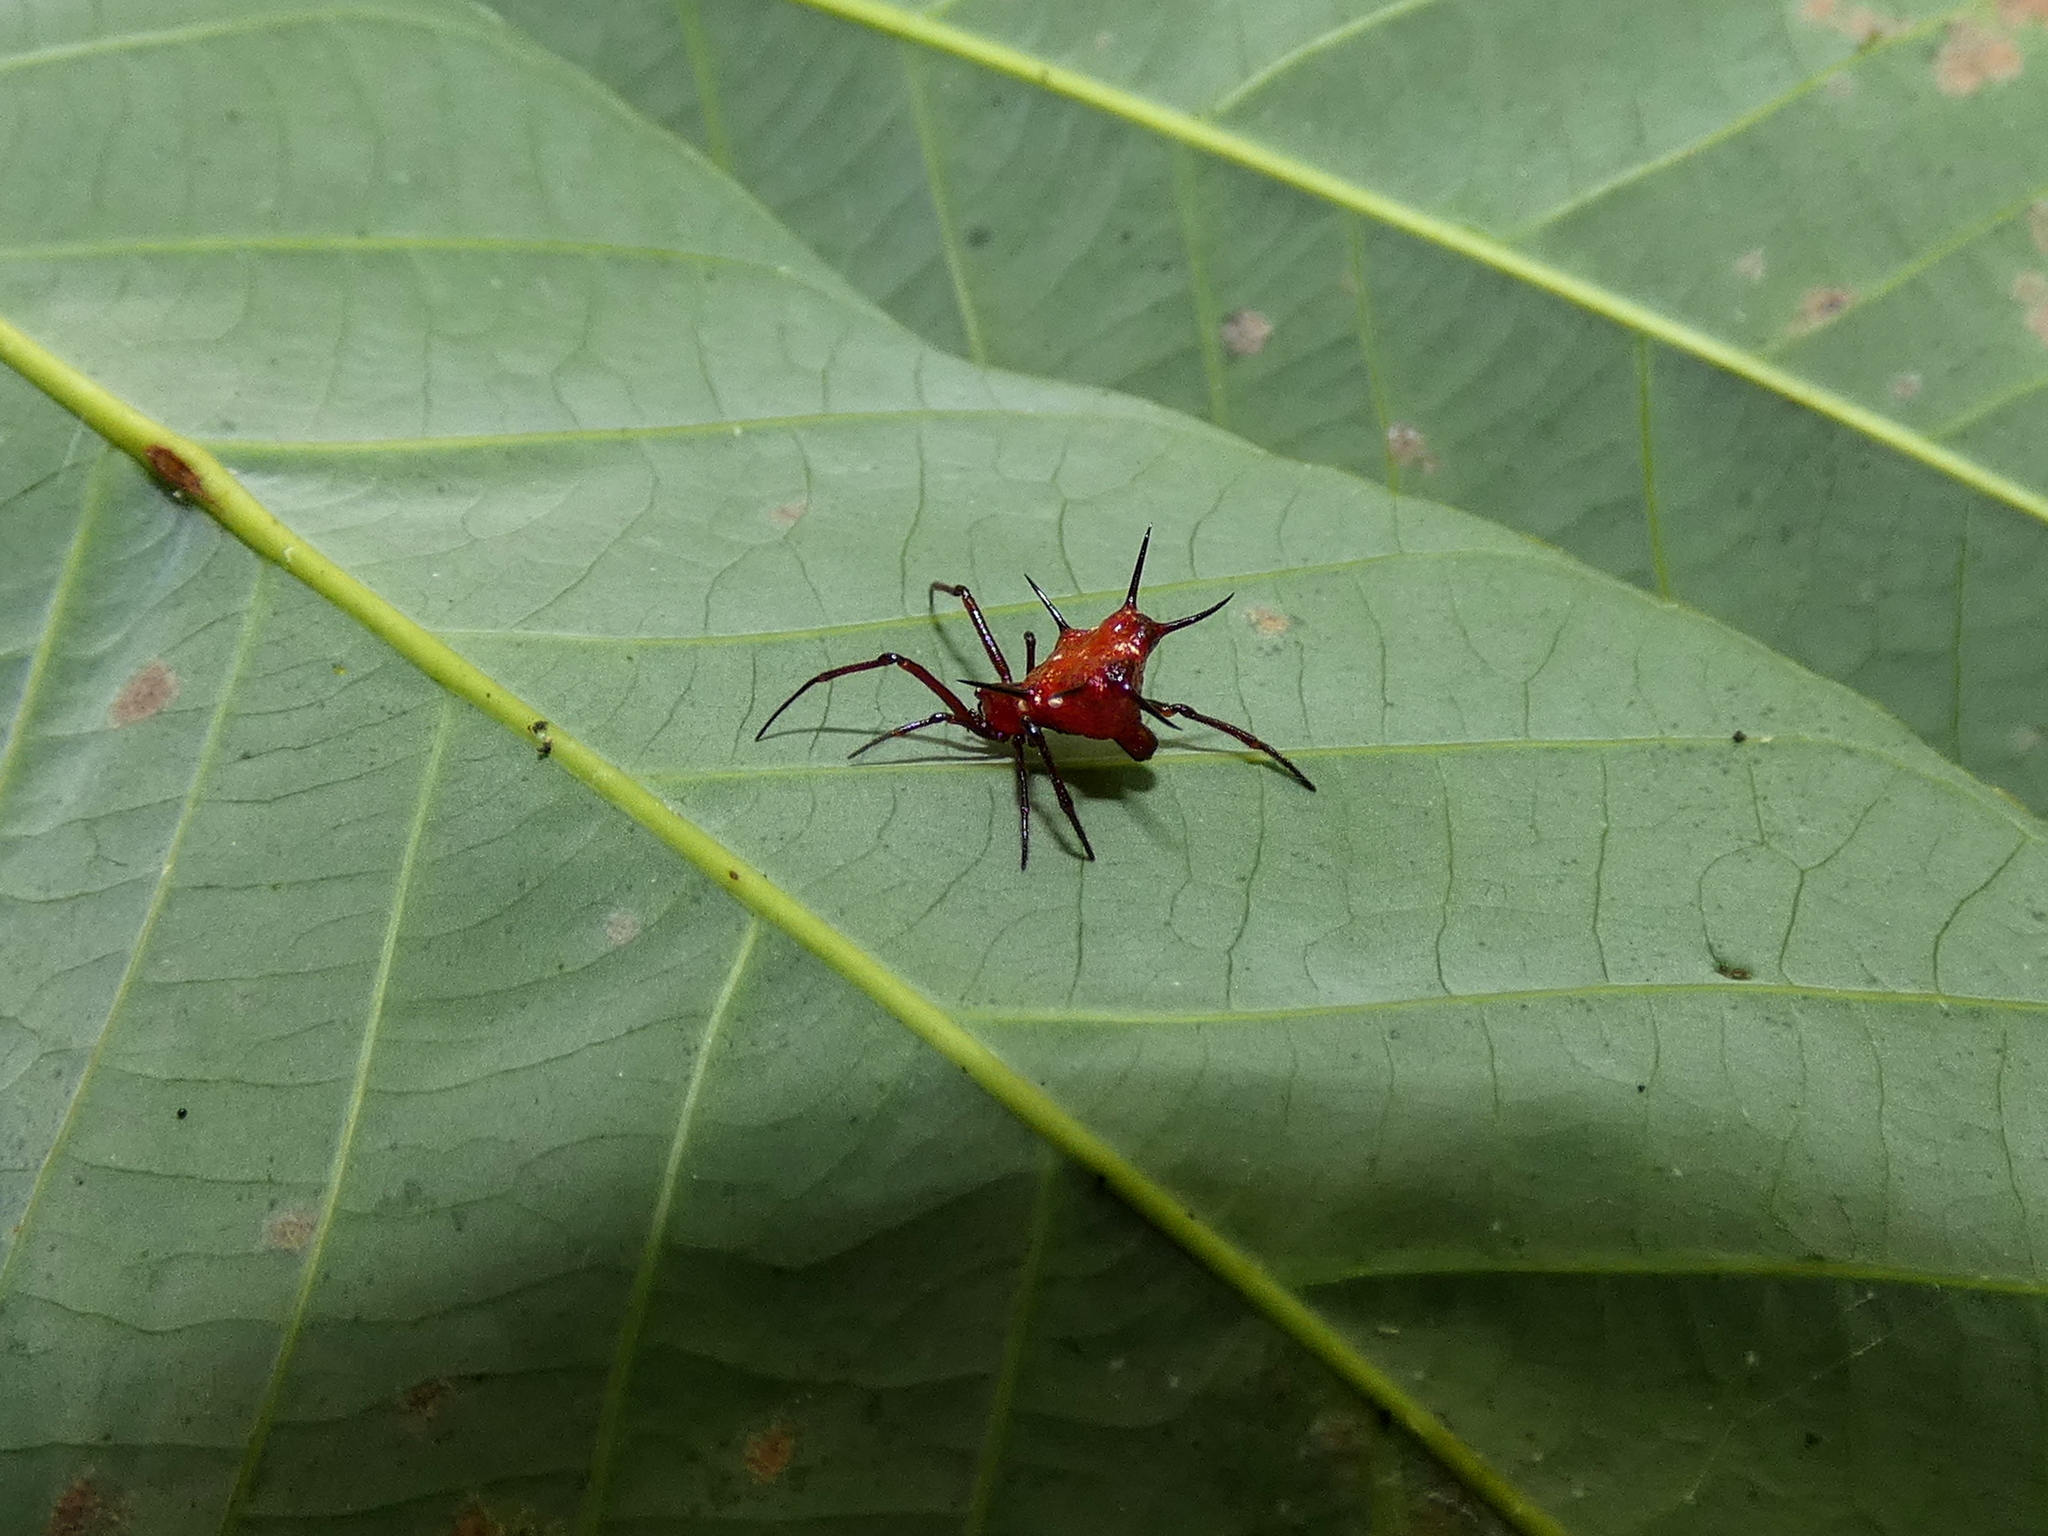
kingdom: Animalia
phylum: Arthropoda
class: Arachnida
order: Araneae
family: Theridiidae
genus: Phoroncidia
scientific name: Phoroncidia lygeana
